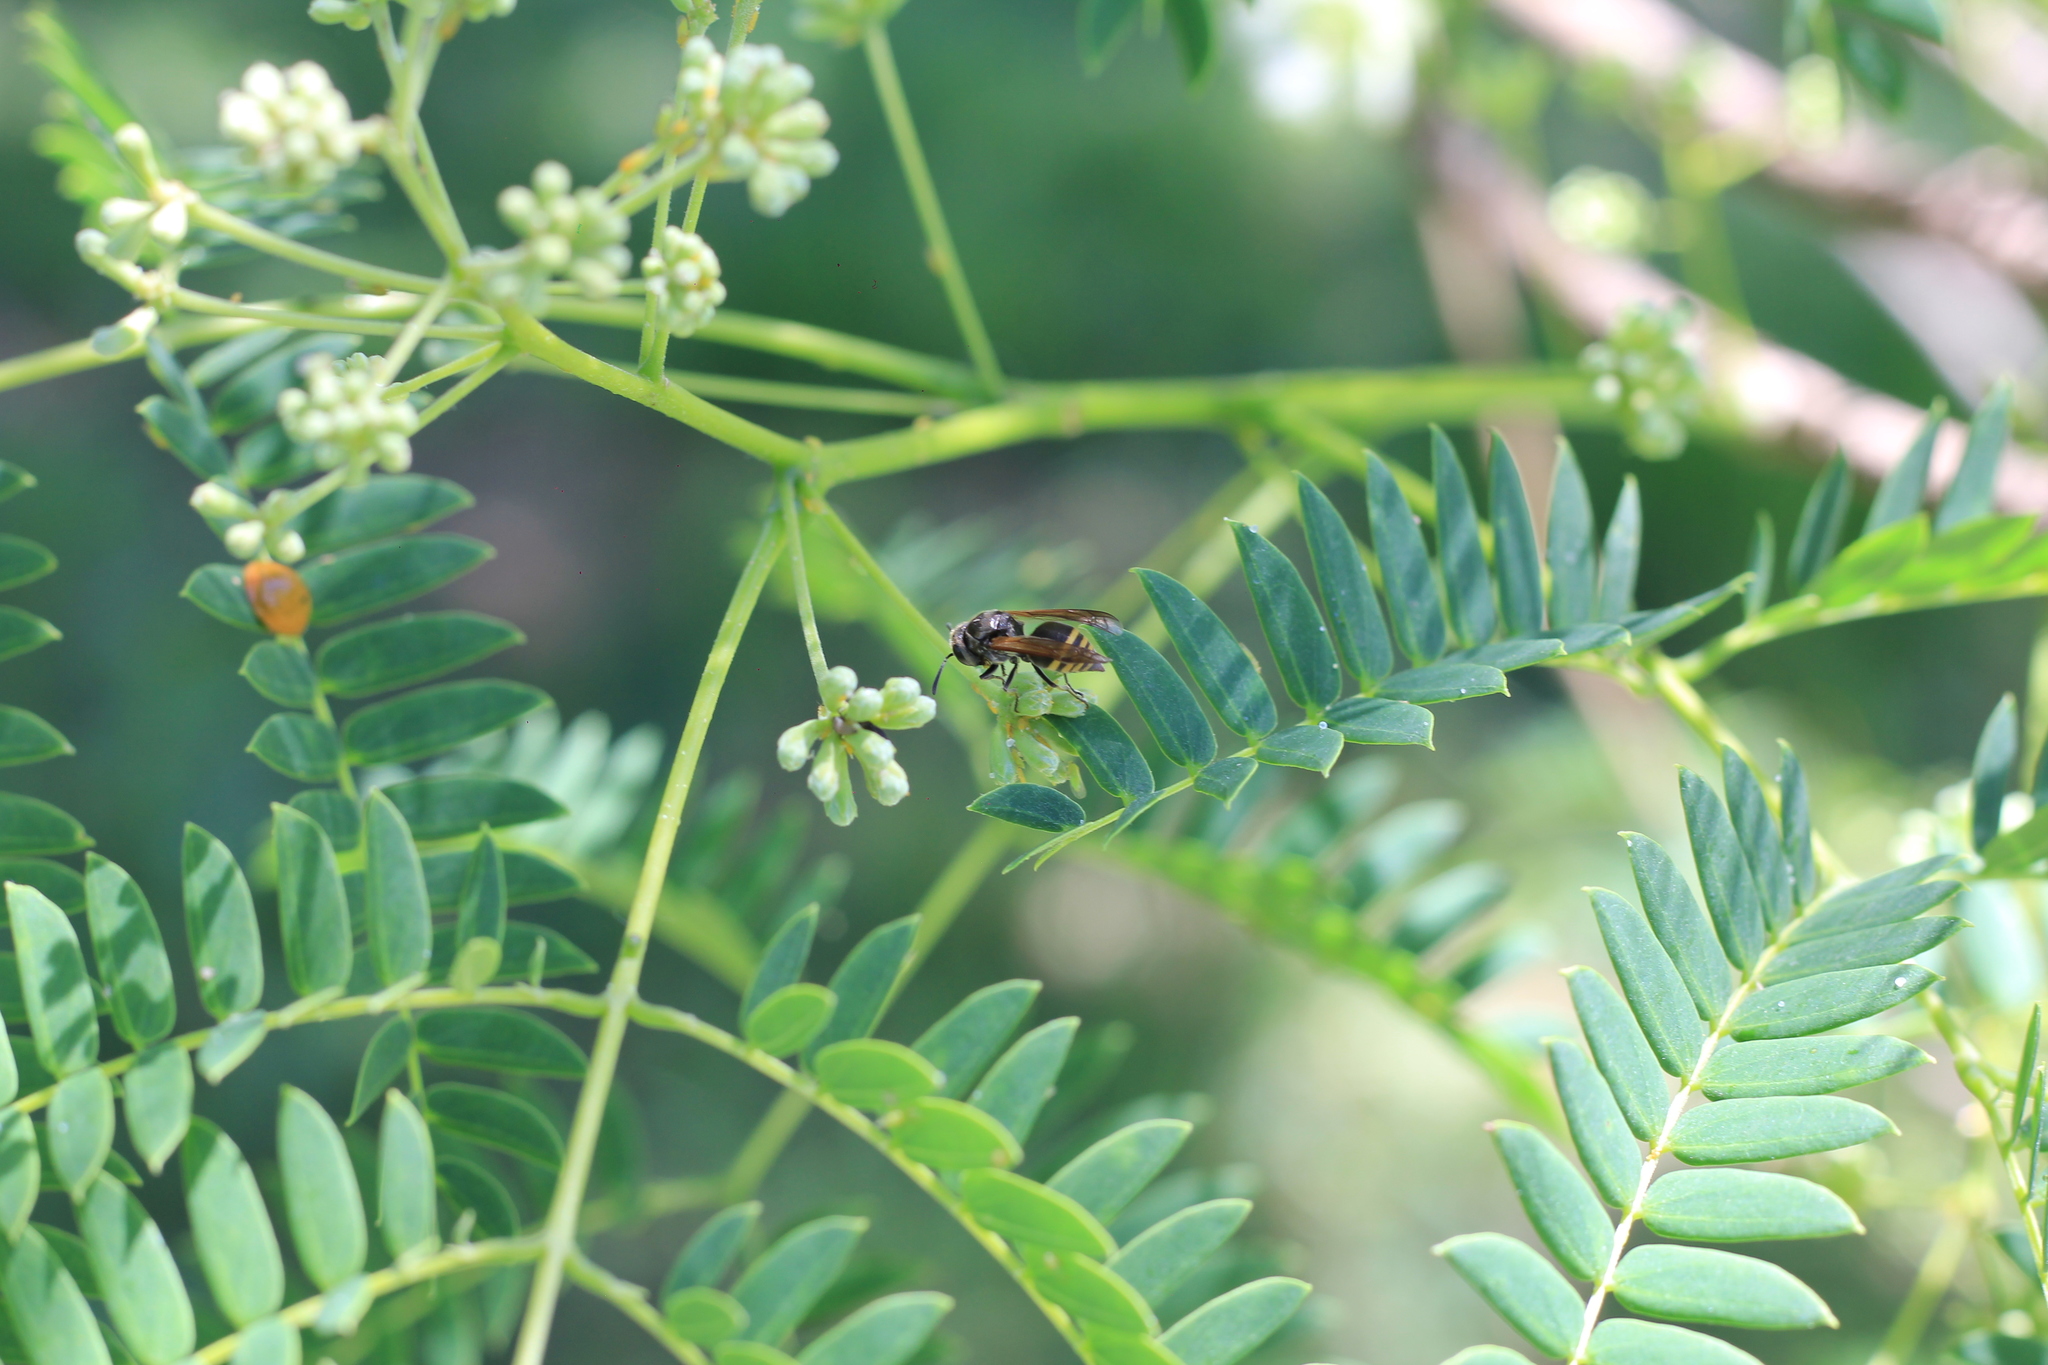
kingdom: Animalia
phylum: Arthropoda
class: Insecta
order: Hymenoptera
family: Vespidae
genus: Brachygastra
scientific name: Brachygastra lecheguana
